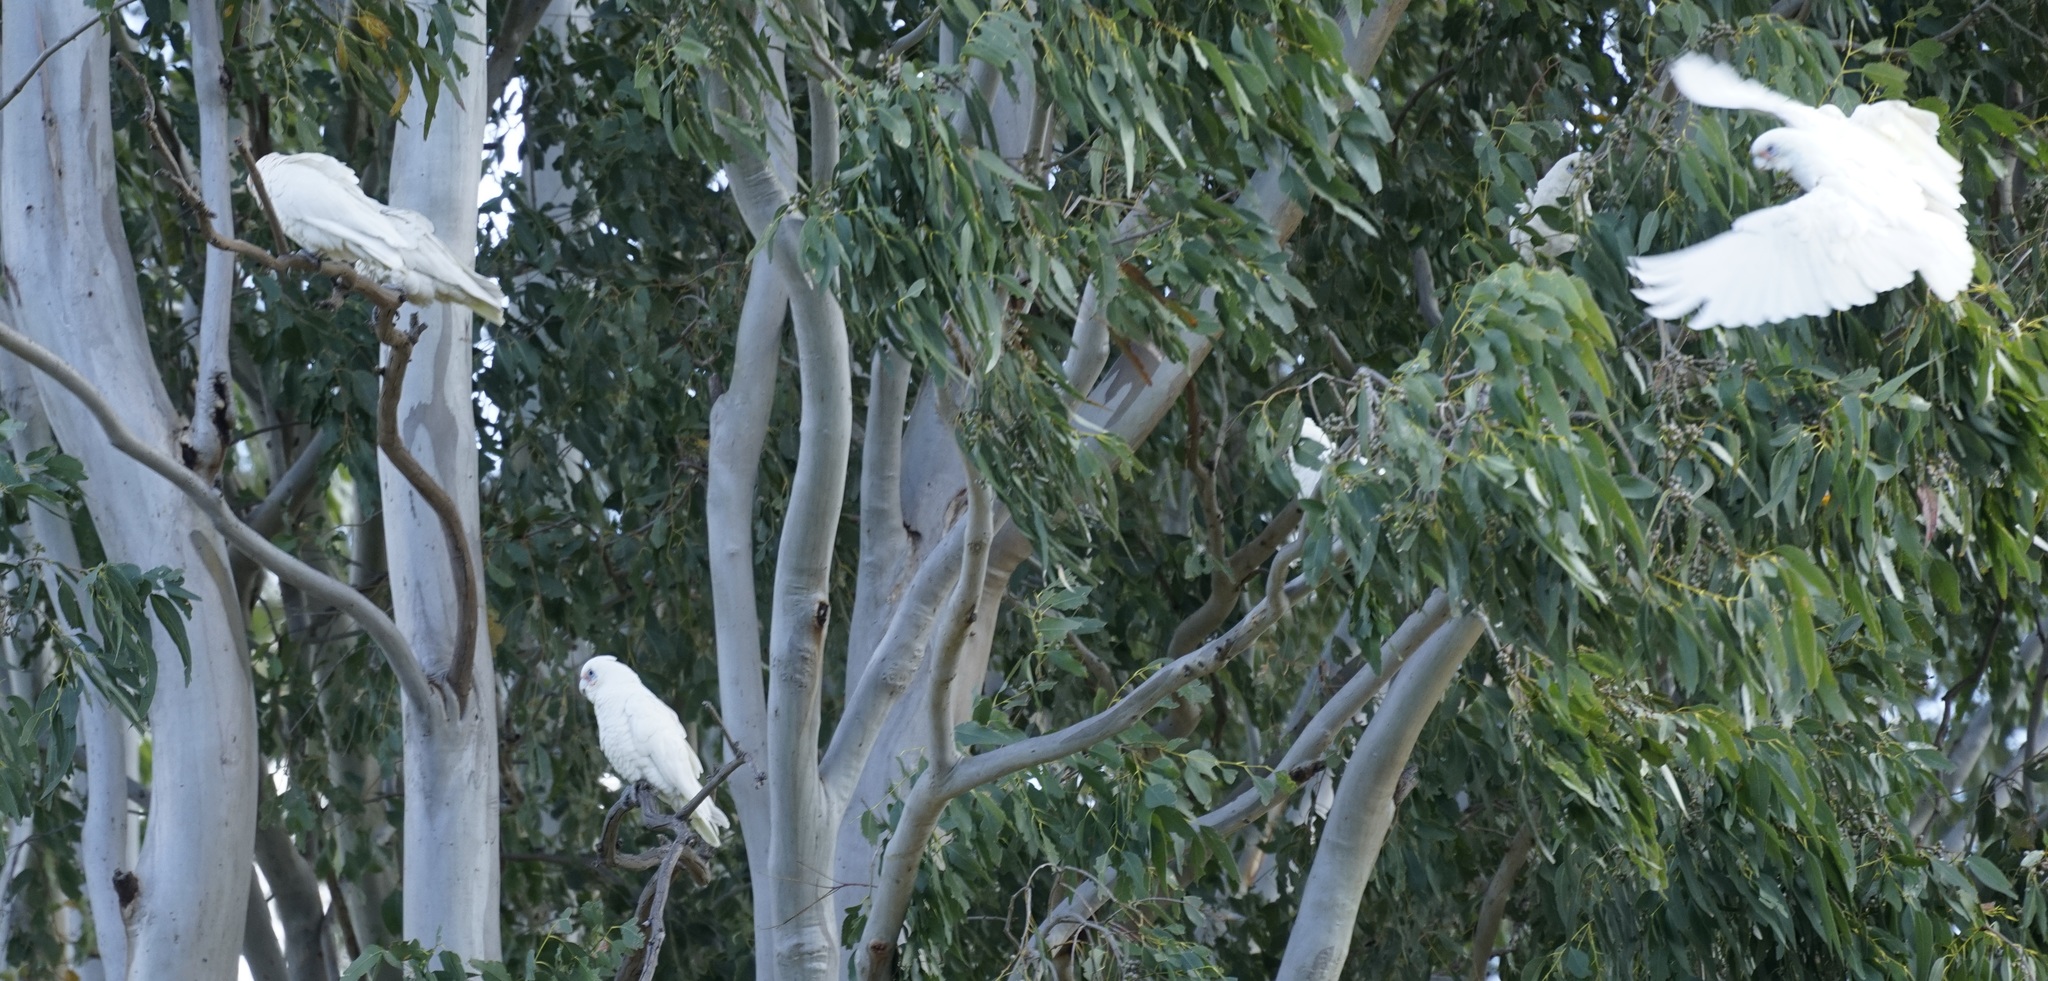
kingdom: Animalia
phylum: Chordata
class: Aves
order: Psittaciformes
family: Psittacidae
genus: Cacatua
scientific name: Cacatua sanguinea
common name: Little corella
